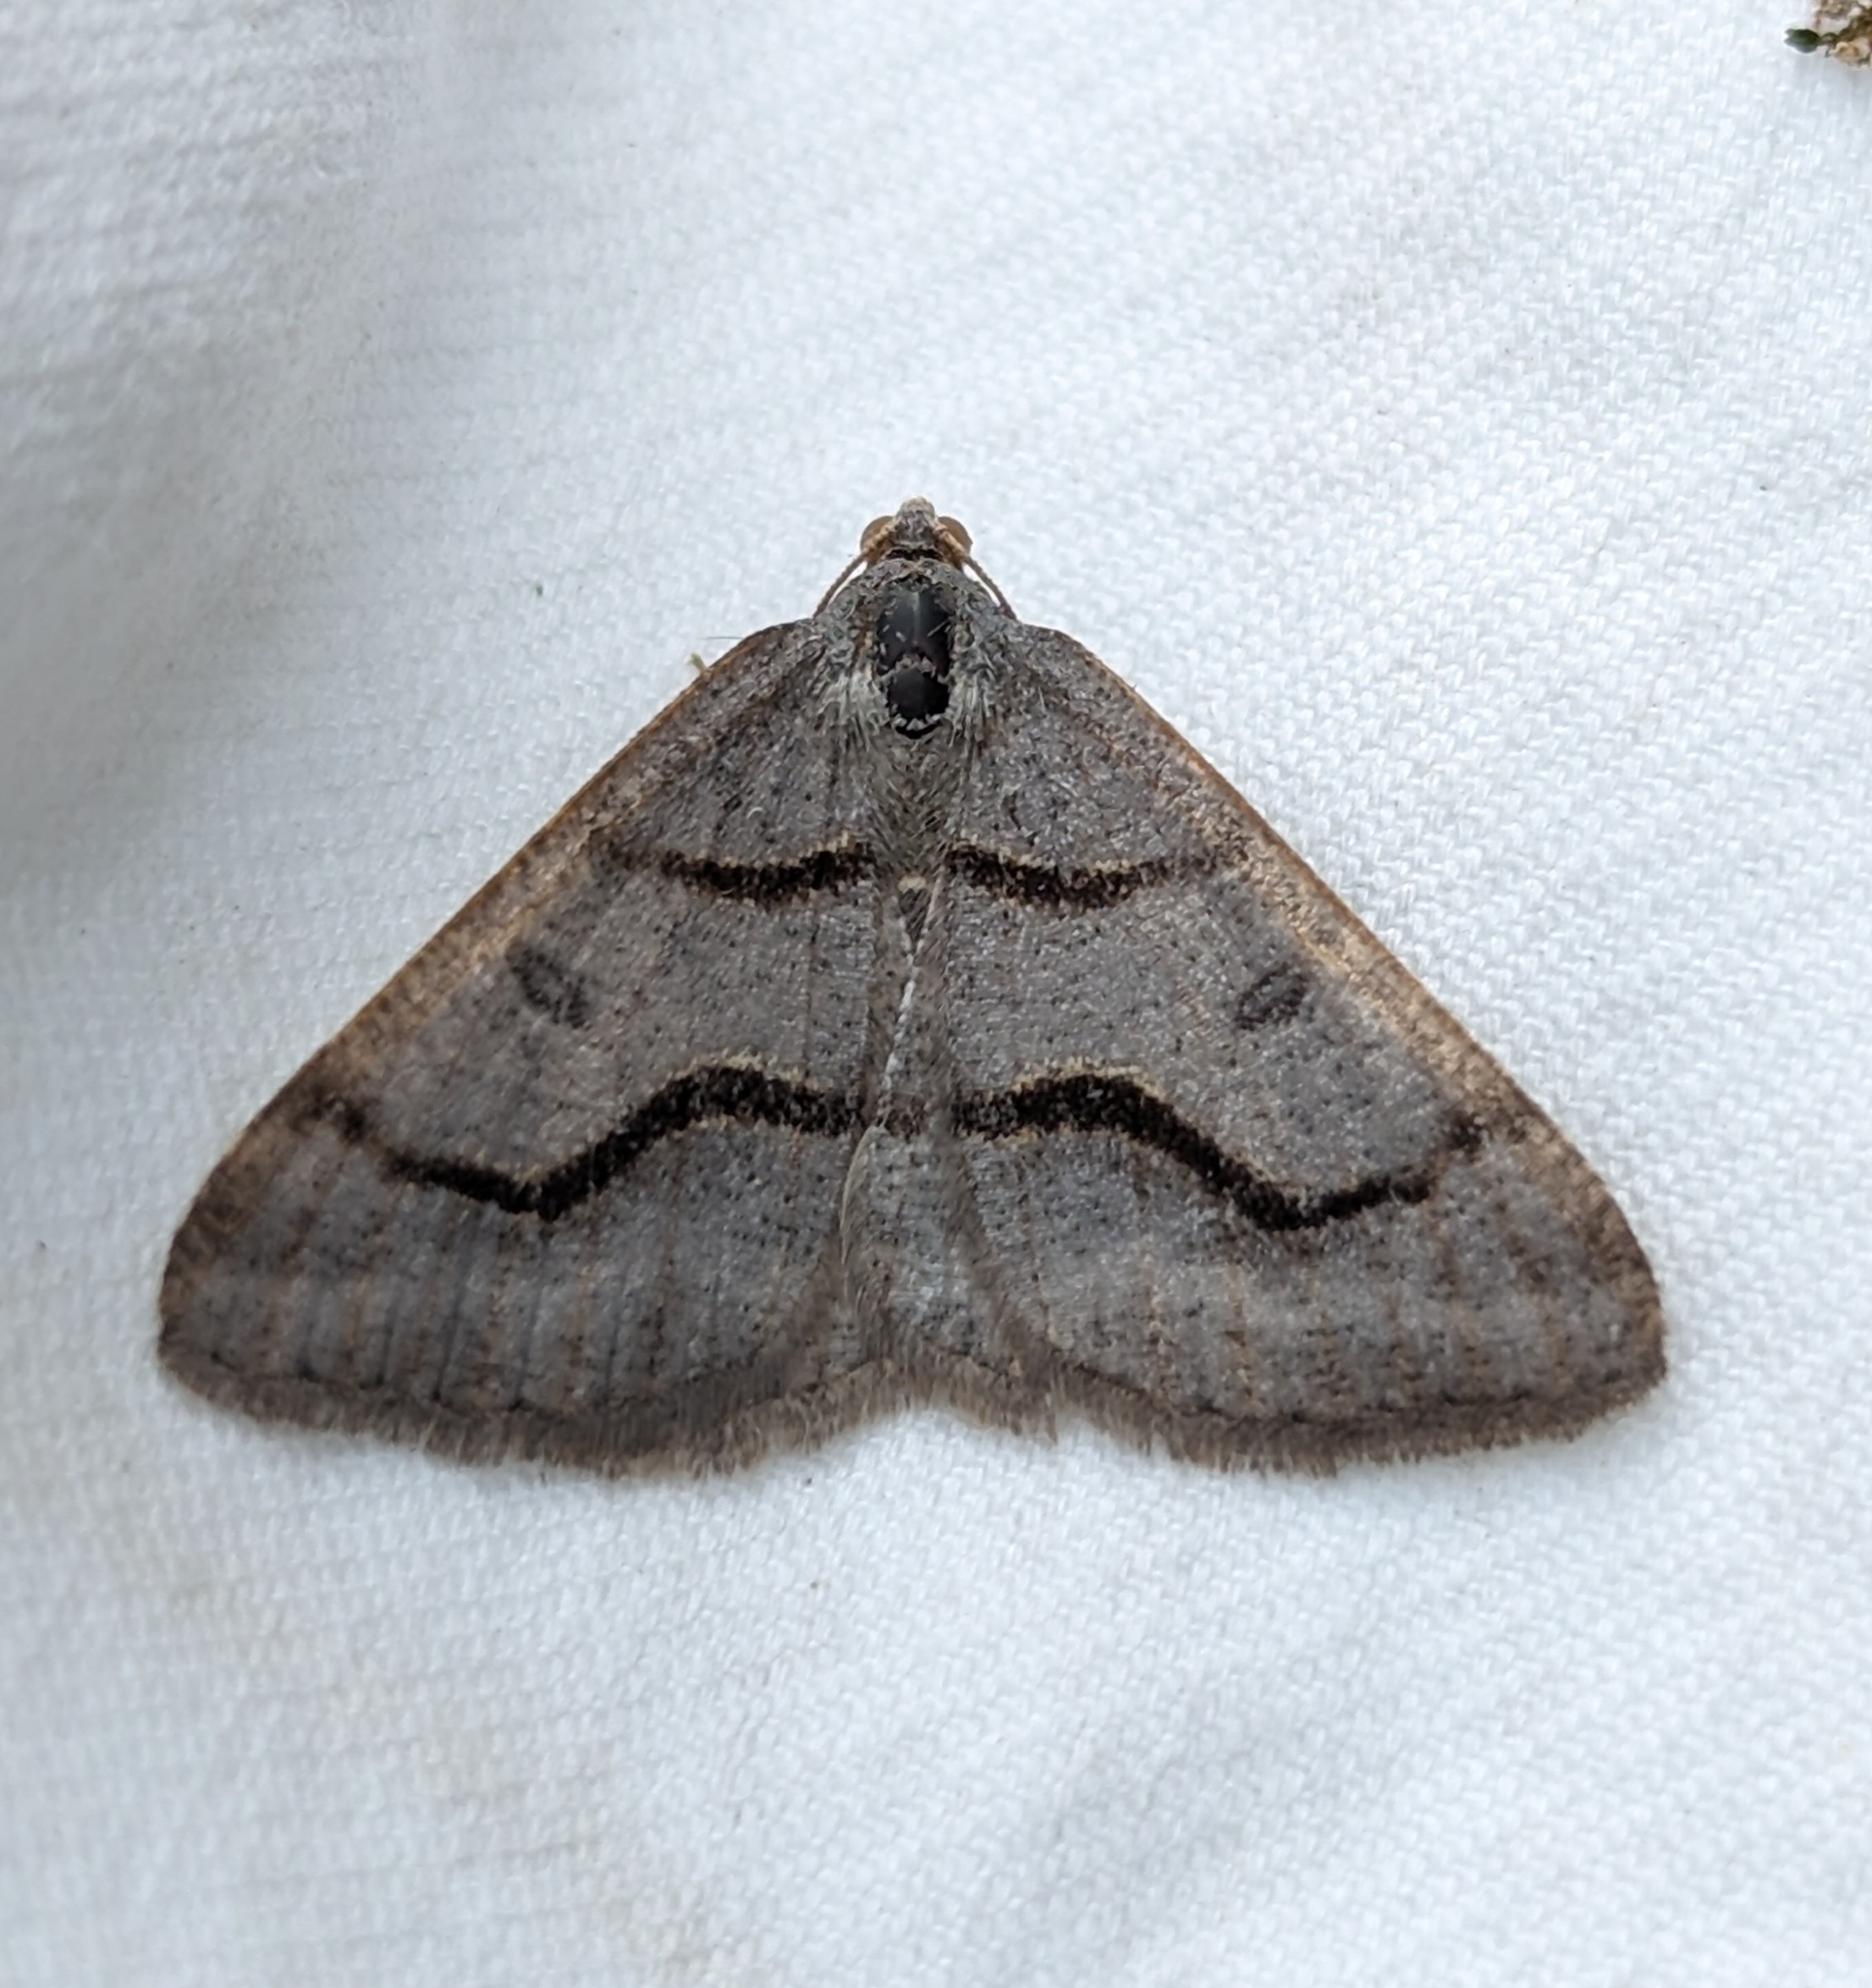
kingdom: Animalia
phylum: Arthropoda
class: Insecta
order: Lepidoptera
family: Geometridae
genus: Digrammia
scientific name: Digrammia rippertaria
